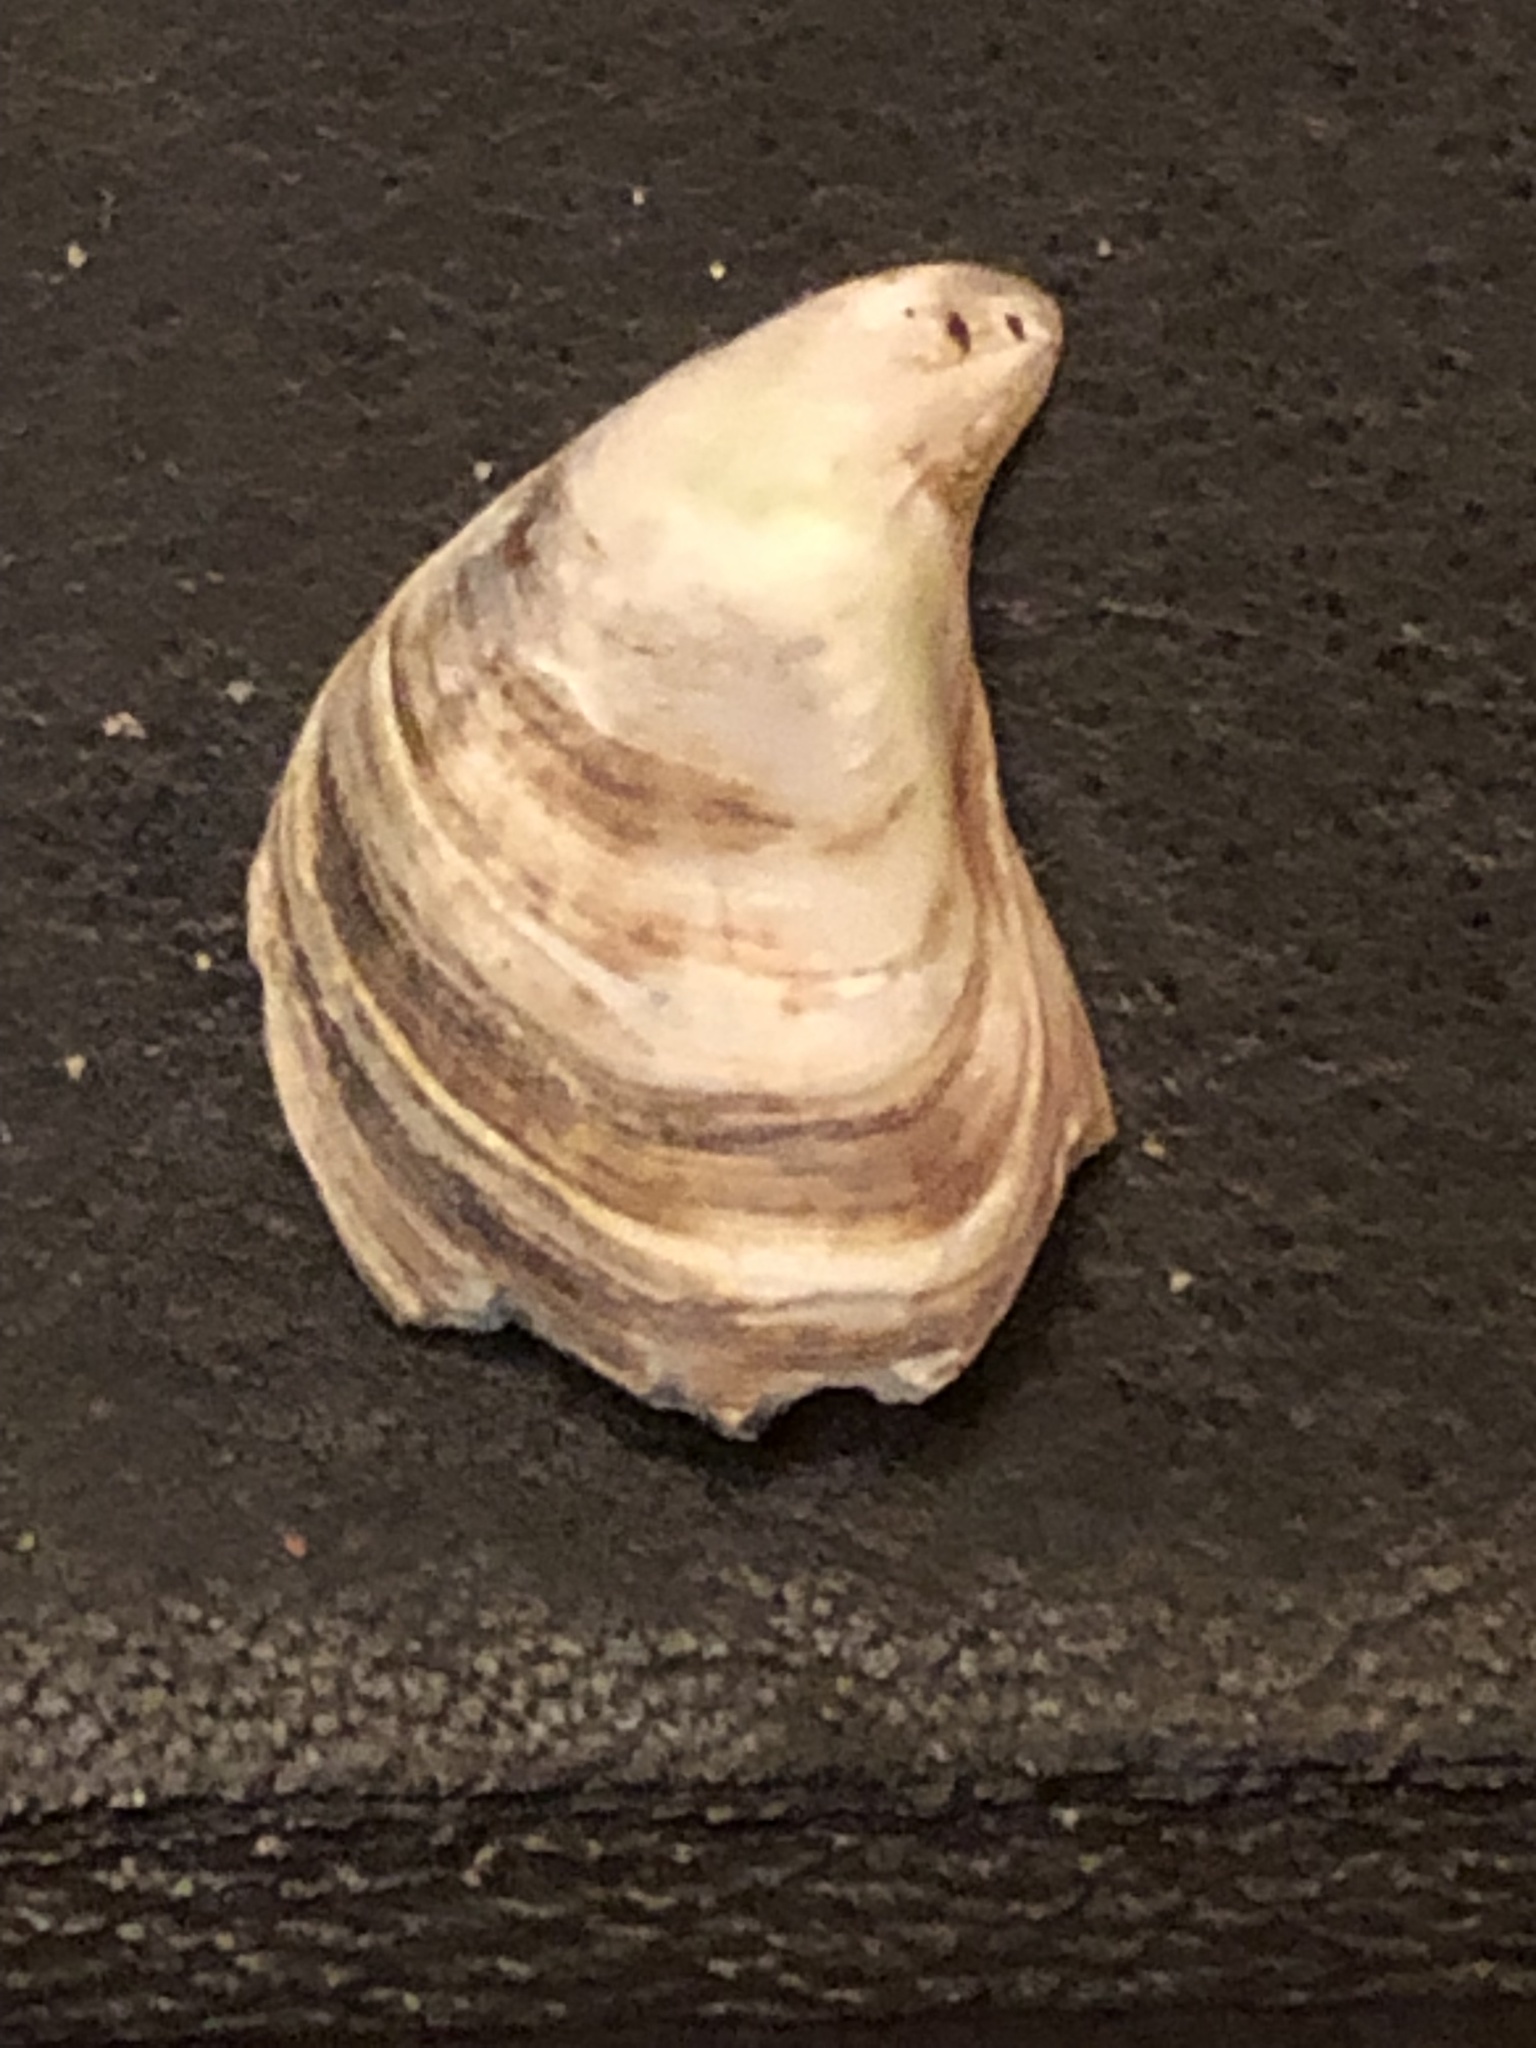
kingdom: Animalia
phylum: Mollusca
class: Bivalvia
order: Myida
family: Dreissenidae
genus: Dreissena
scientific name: Dreissena bugensis
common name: Quagga mussel
